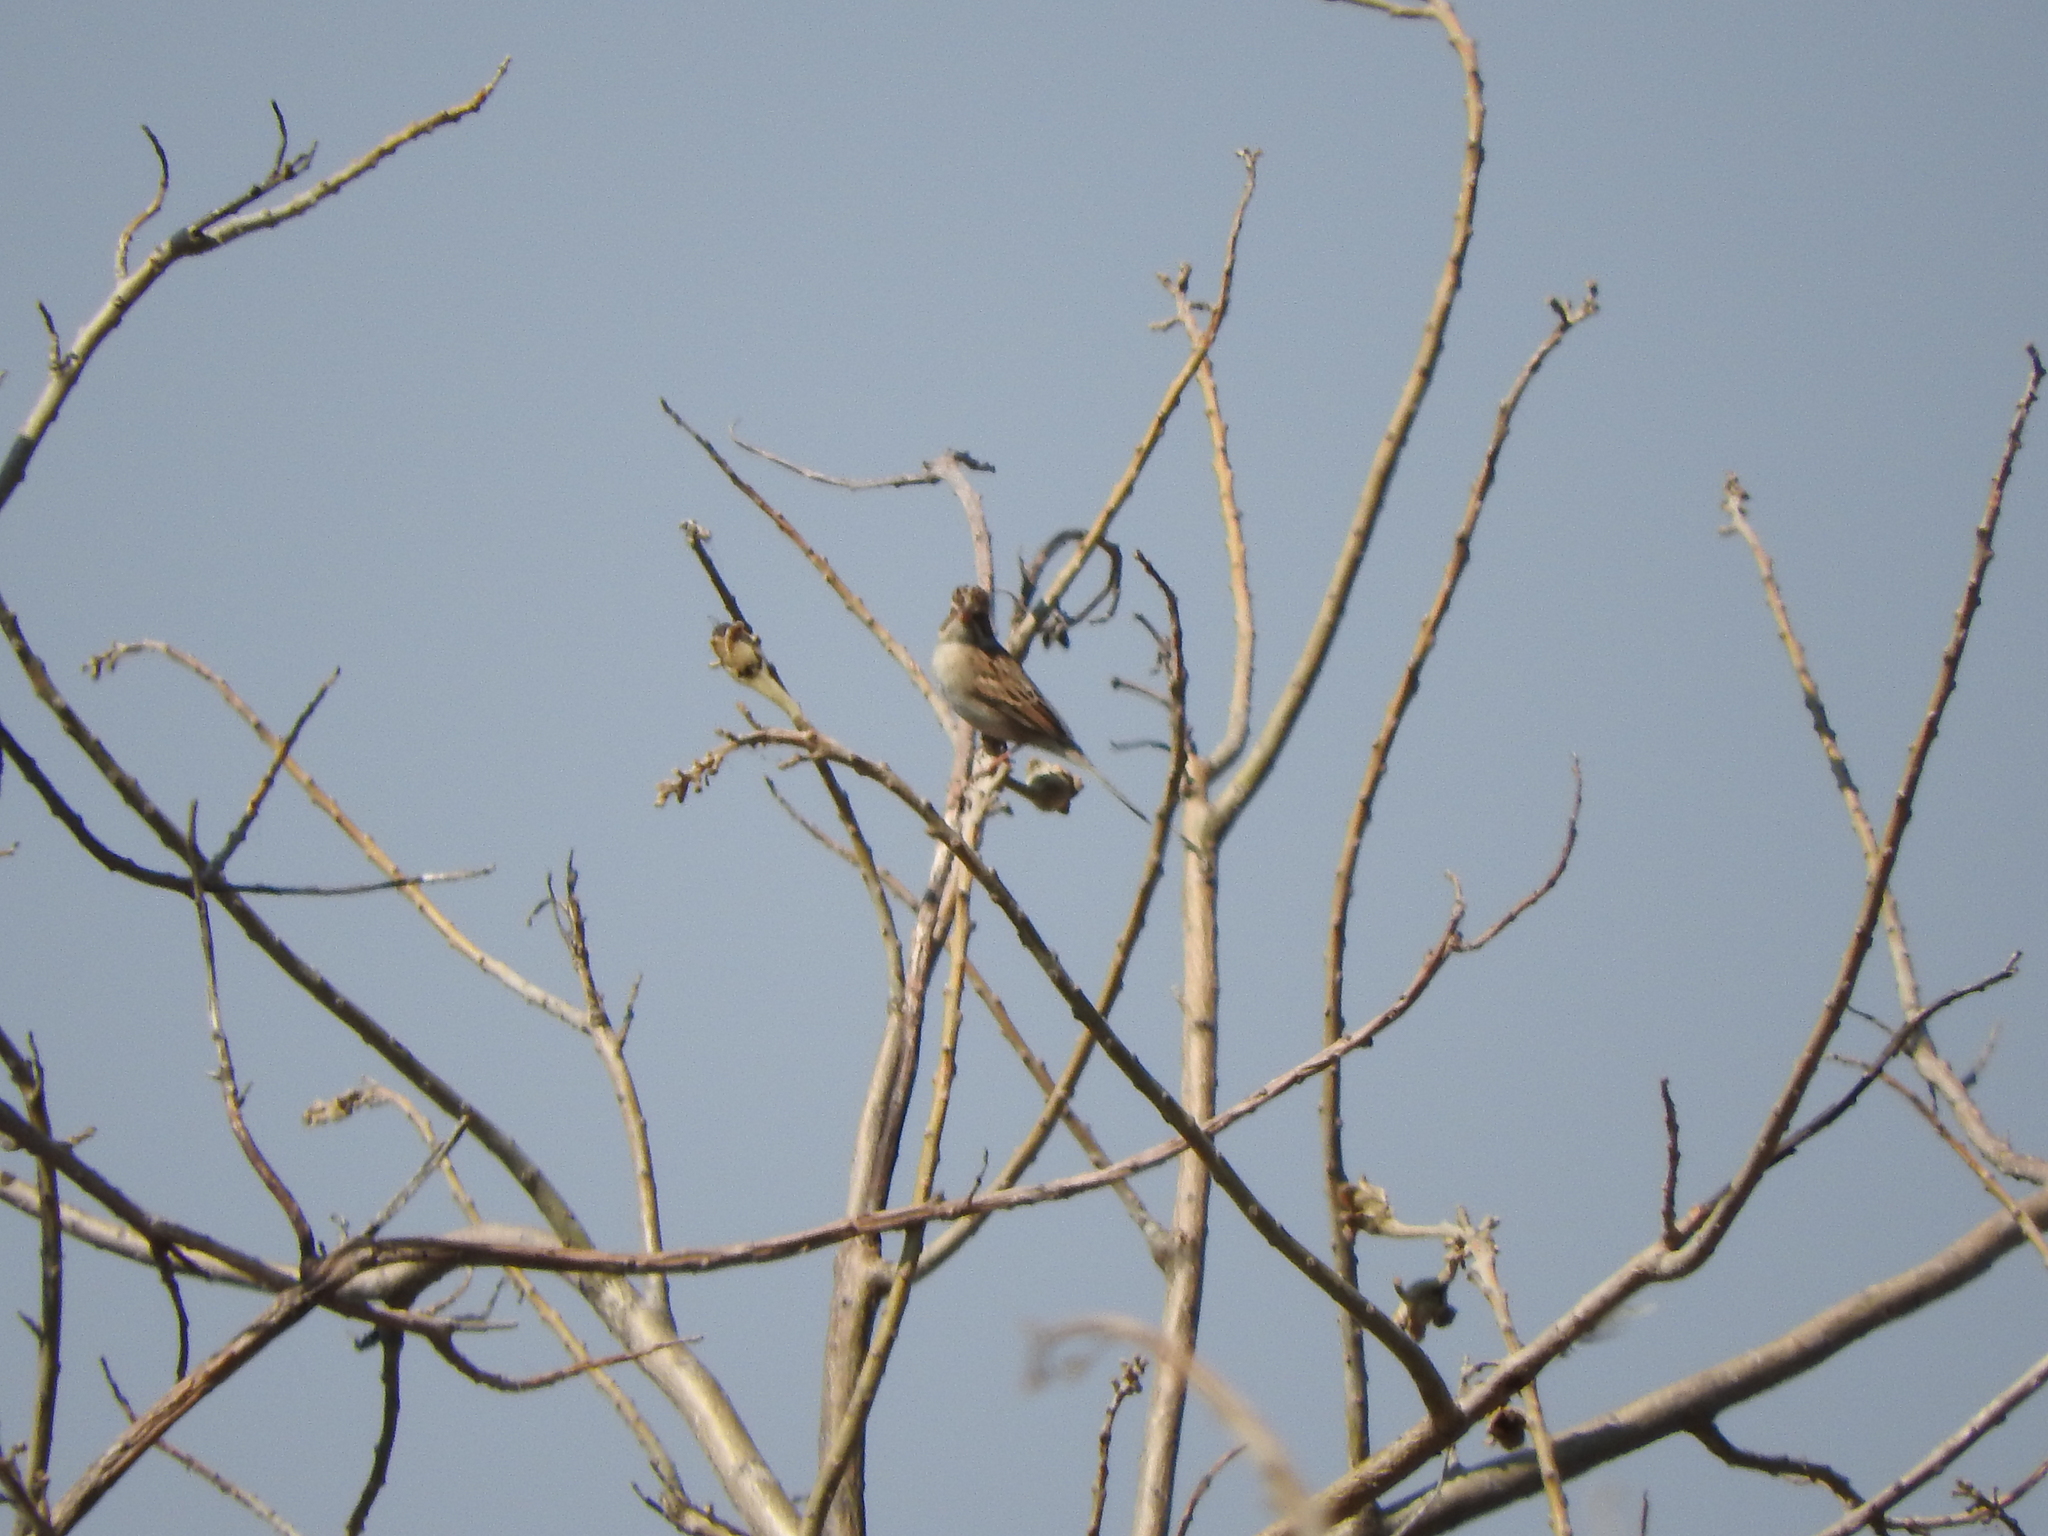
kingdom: Animalia
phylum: Chordata
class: Aves
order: Passeriformes
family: Passerellidae
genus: Spizella
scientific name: Spizella pallida
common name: Clay-colored sparrow
